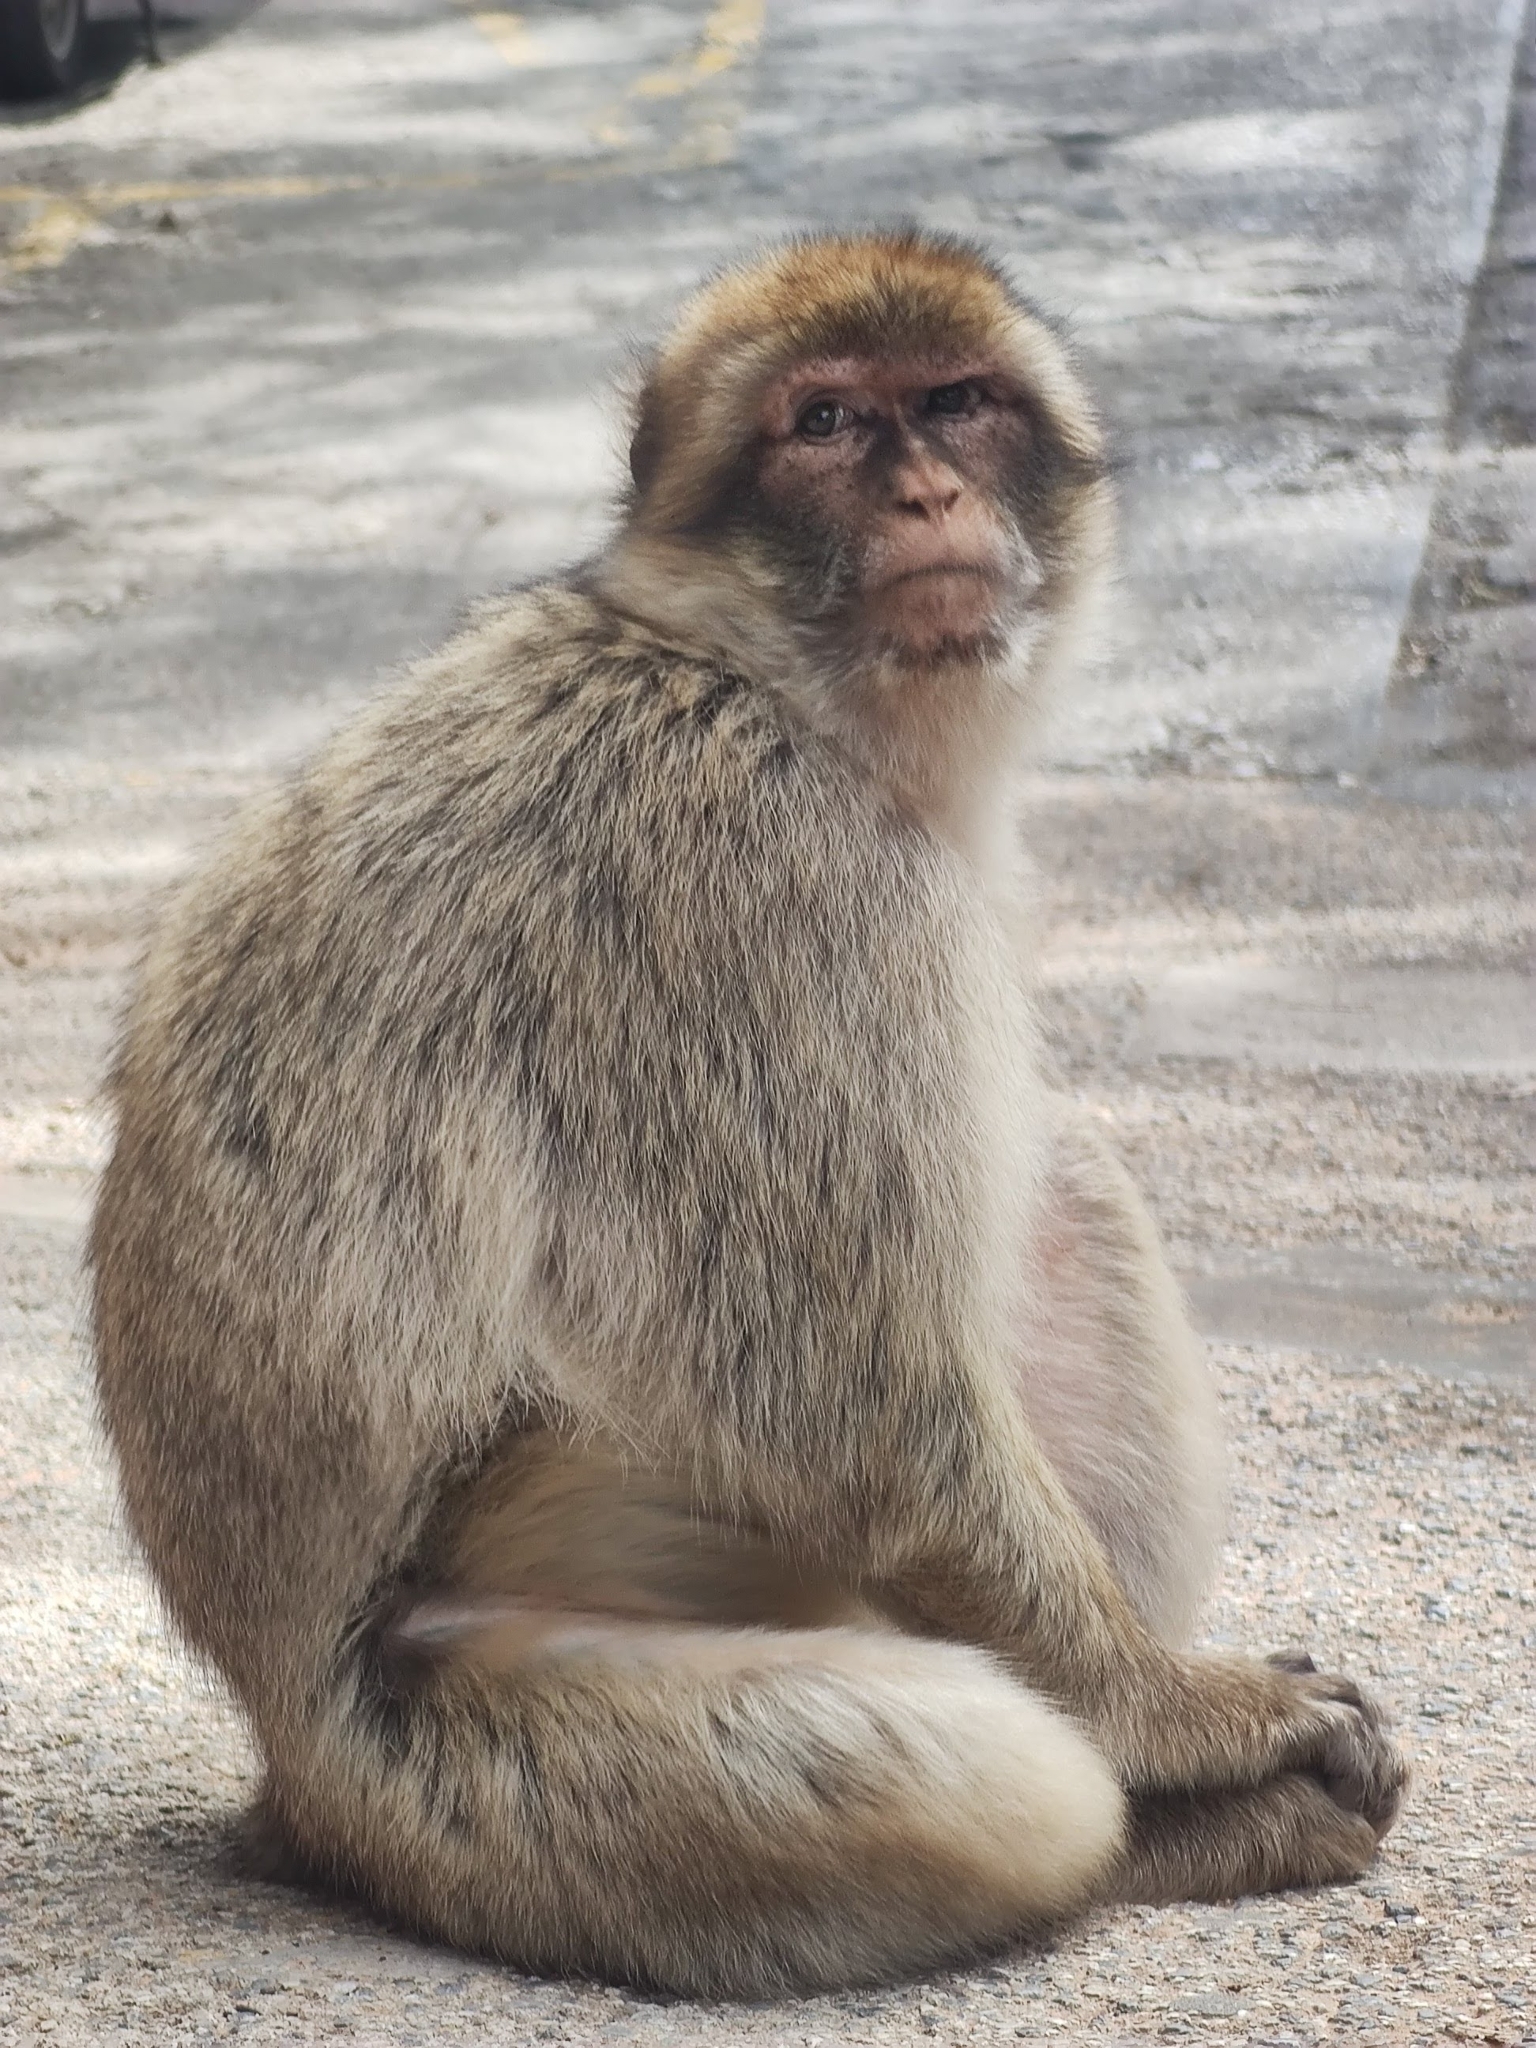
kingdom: Animalia
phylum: Chordata
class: Mammalia
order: Primates
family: Cercopithecidae
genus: Macaca
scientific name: Macaca sylvanus
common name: Barbary macaque
